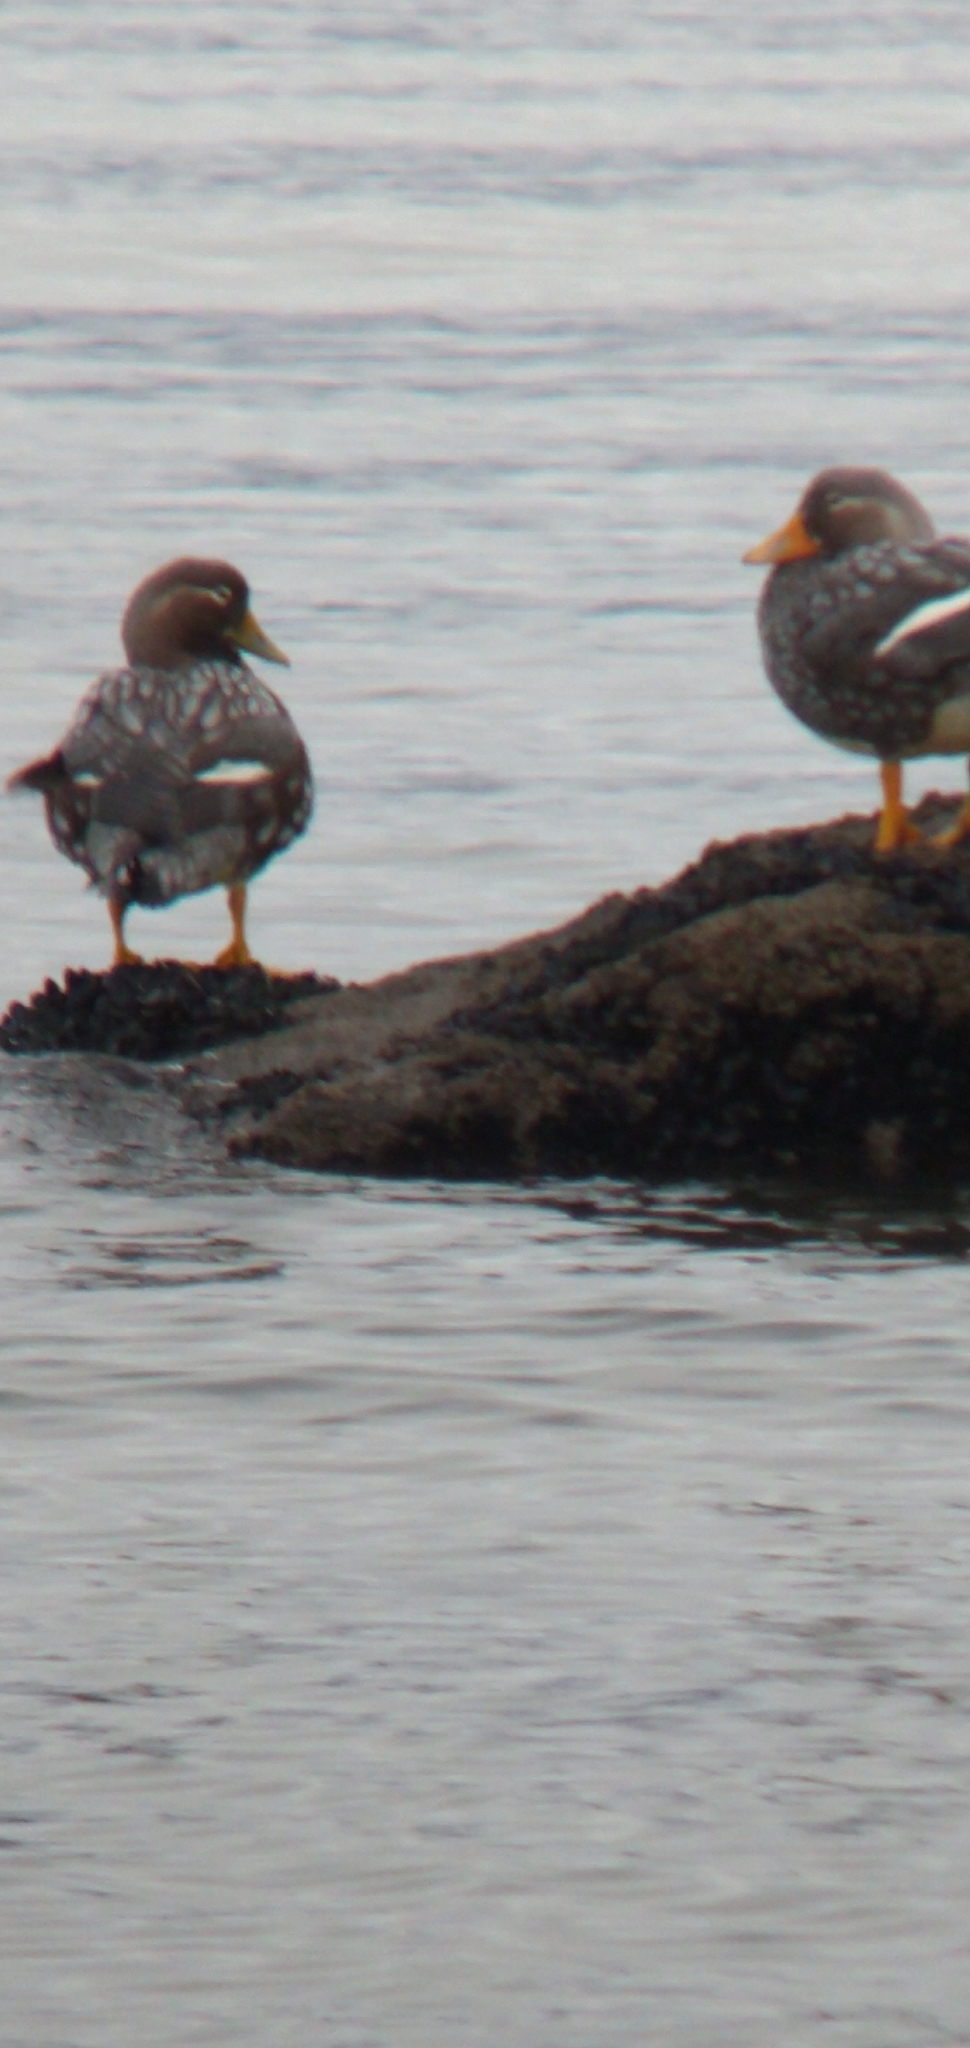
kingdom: Animalia
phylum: Chordata
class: Aves
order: Anseriformes
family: Anatidae
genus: Tachyeres
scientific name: Tachyeres patachonicus
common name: Flying steamer duck
